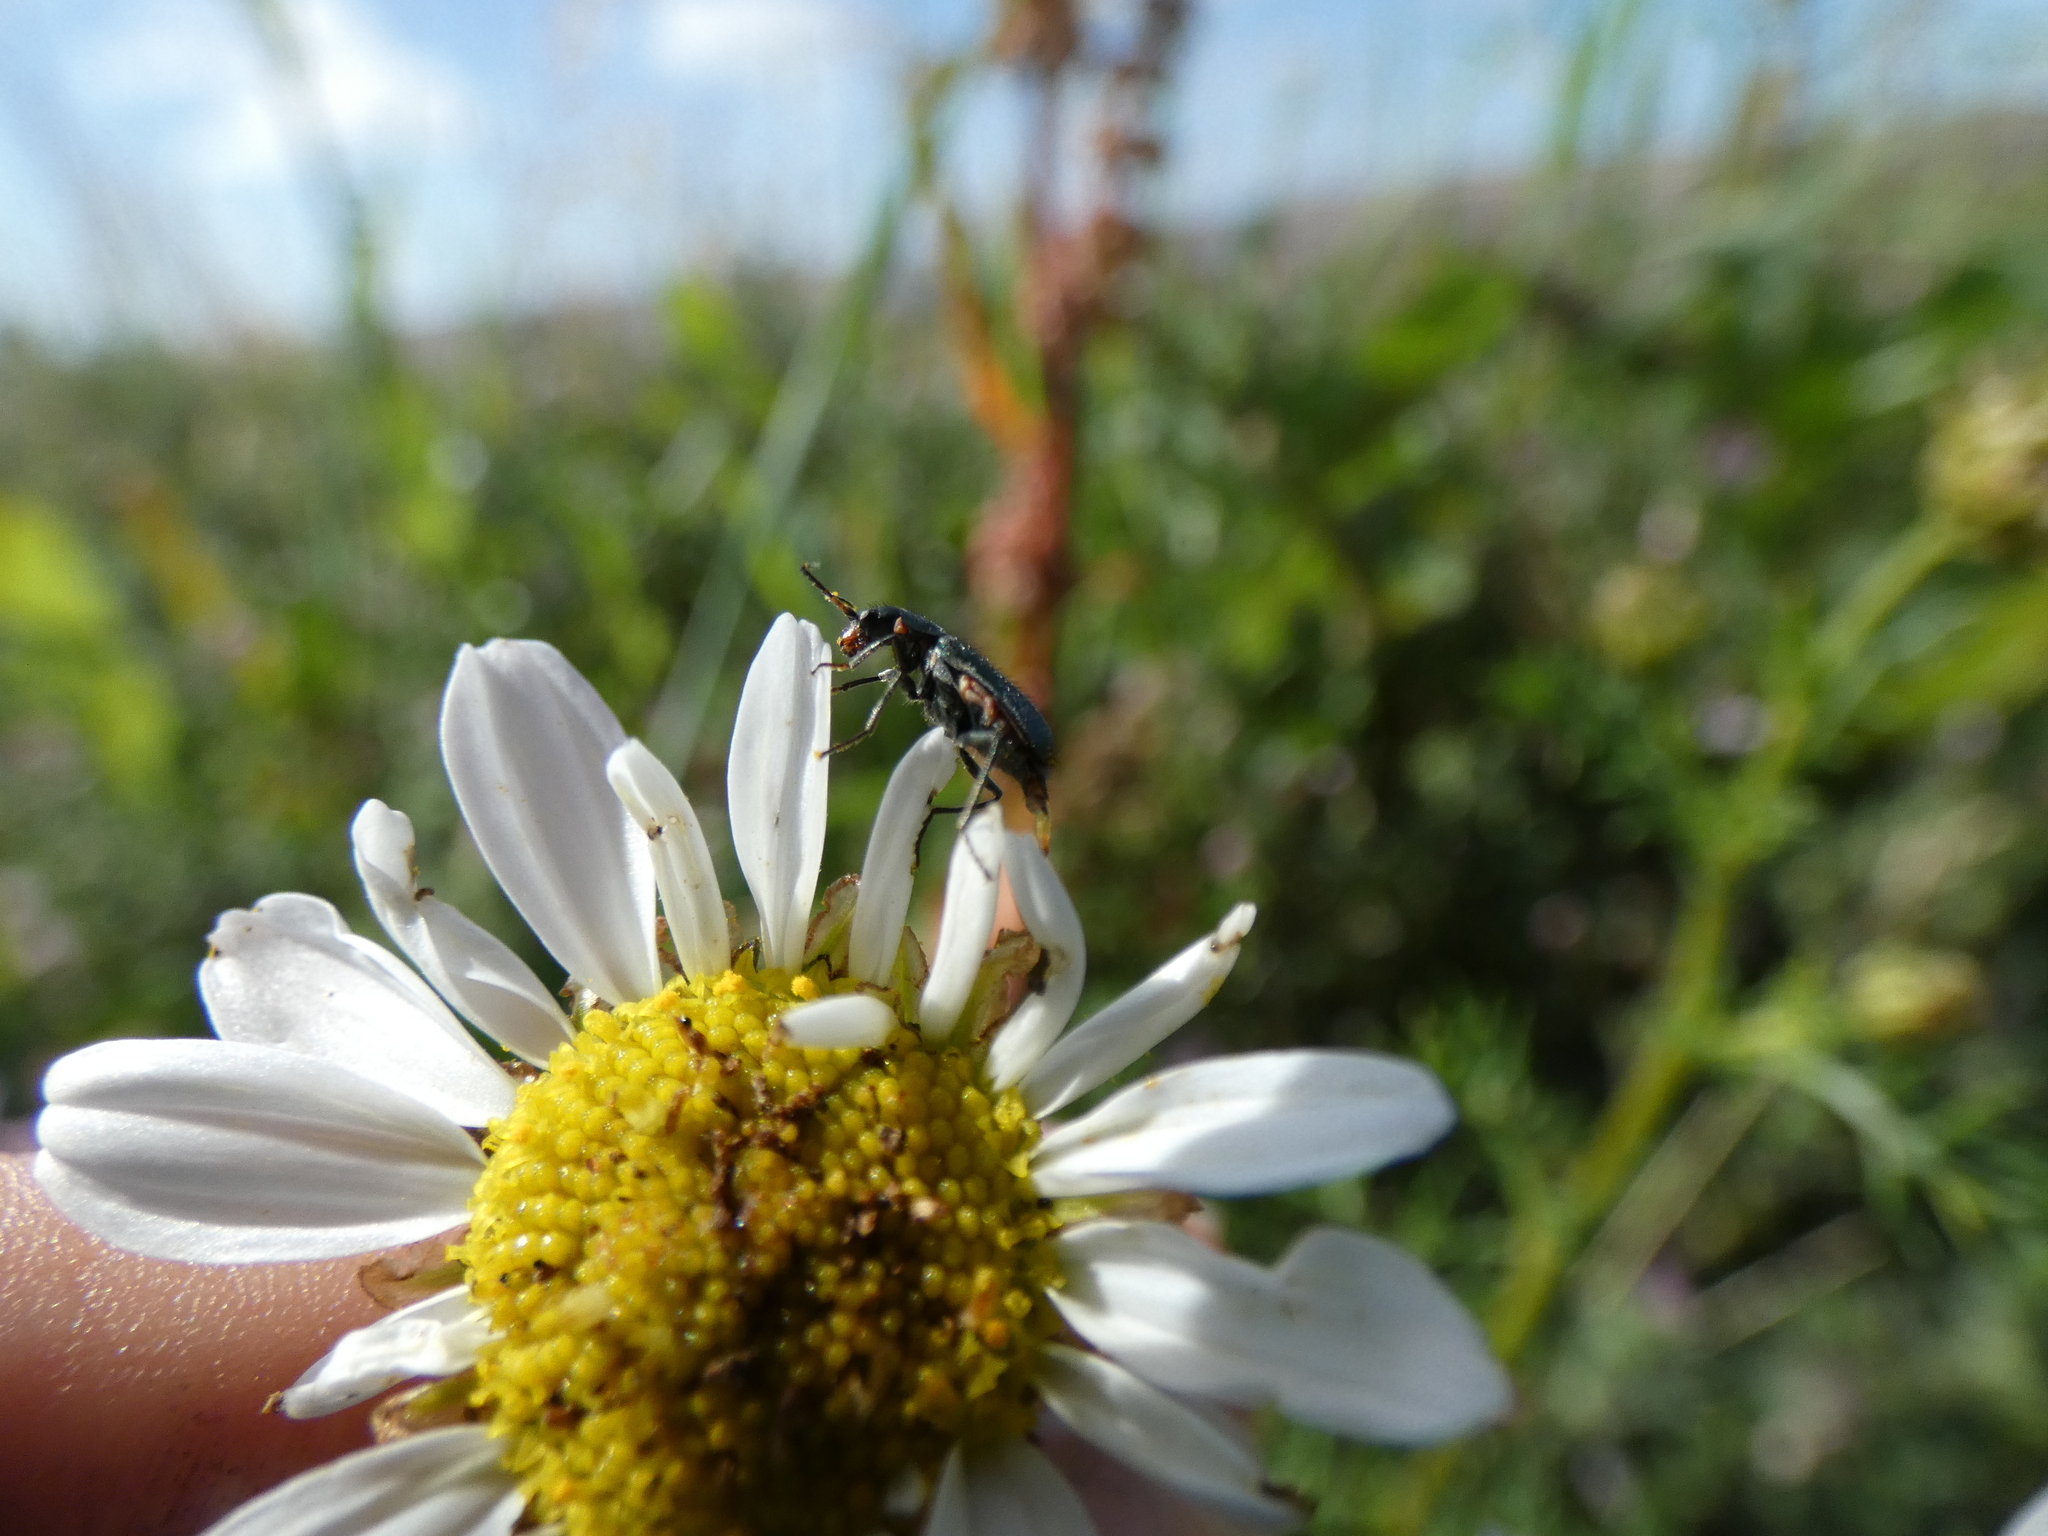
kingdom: Animalia
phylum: Arthropoda
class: Insecta
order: Coleoptera
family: Malachiidae
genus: Cordylepherus
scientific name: Cordylepherus viridis
